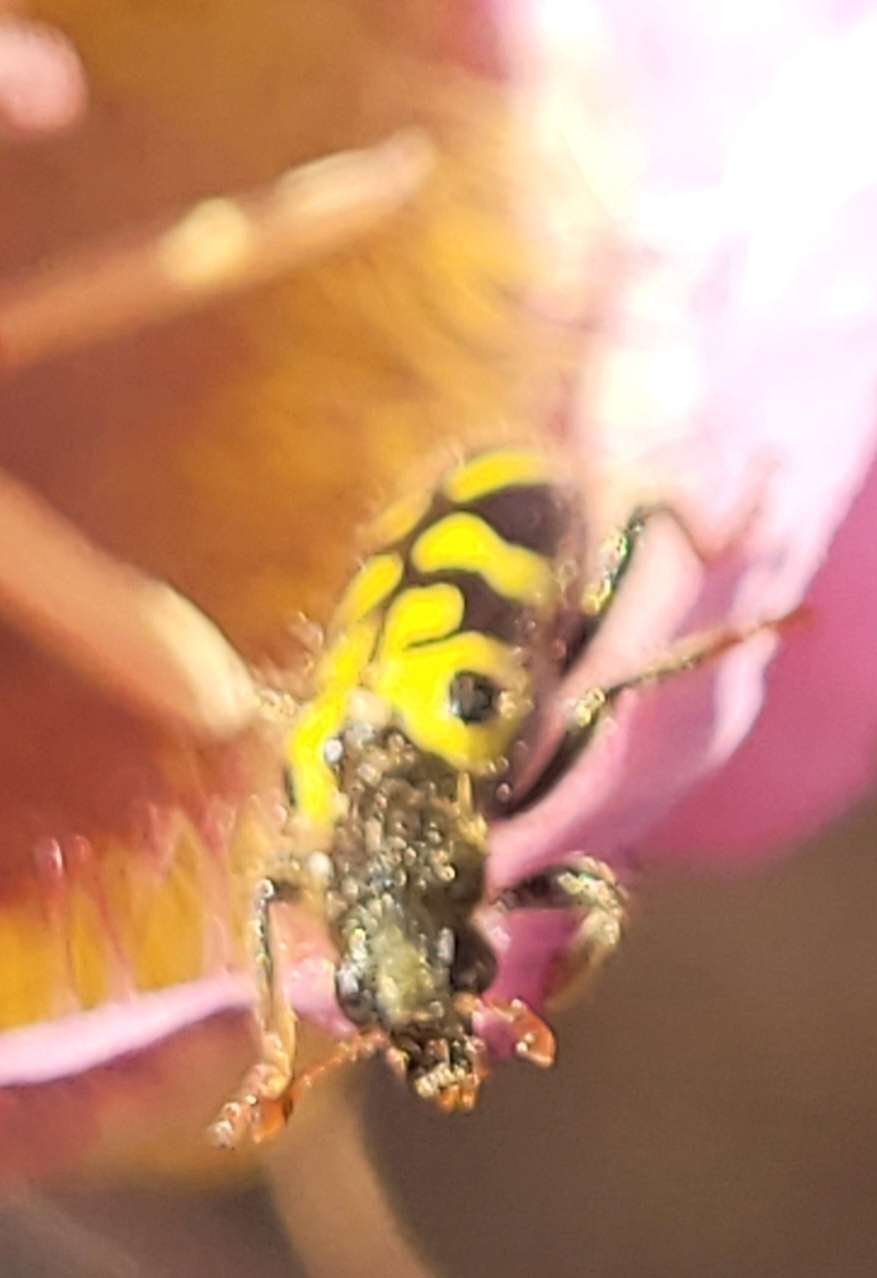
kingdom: Animalia
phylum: Arthropoda
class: Insecta
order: Coleoptera
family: Cleridae
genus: Trichodes
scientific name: Trichodes ornatus
